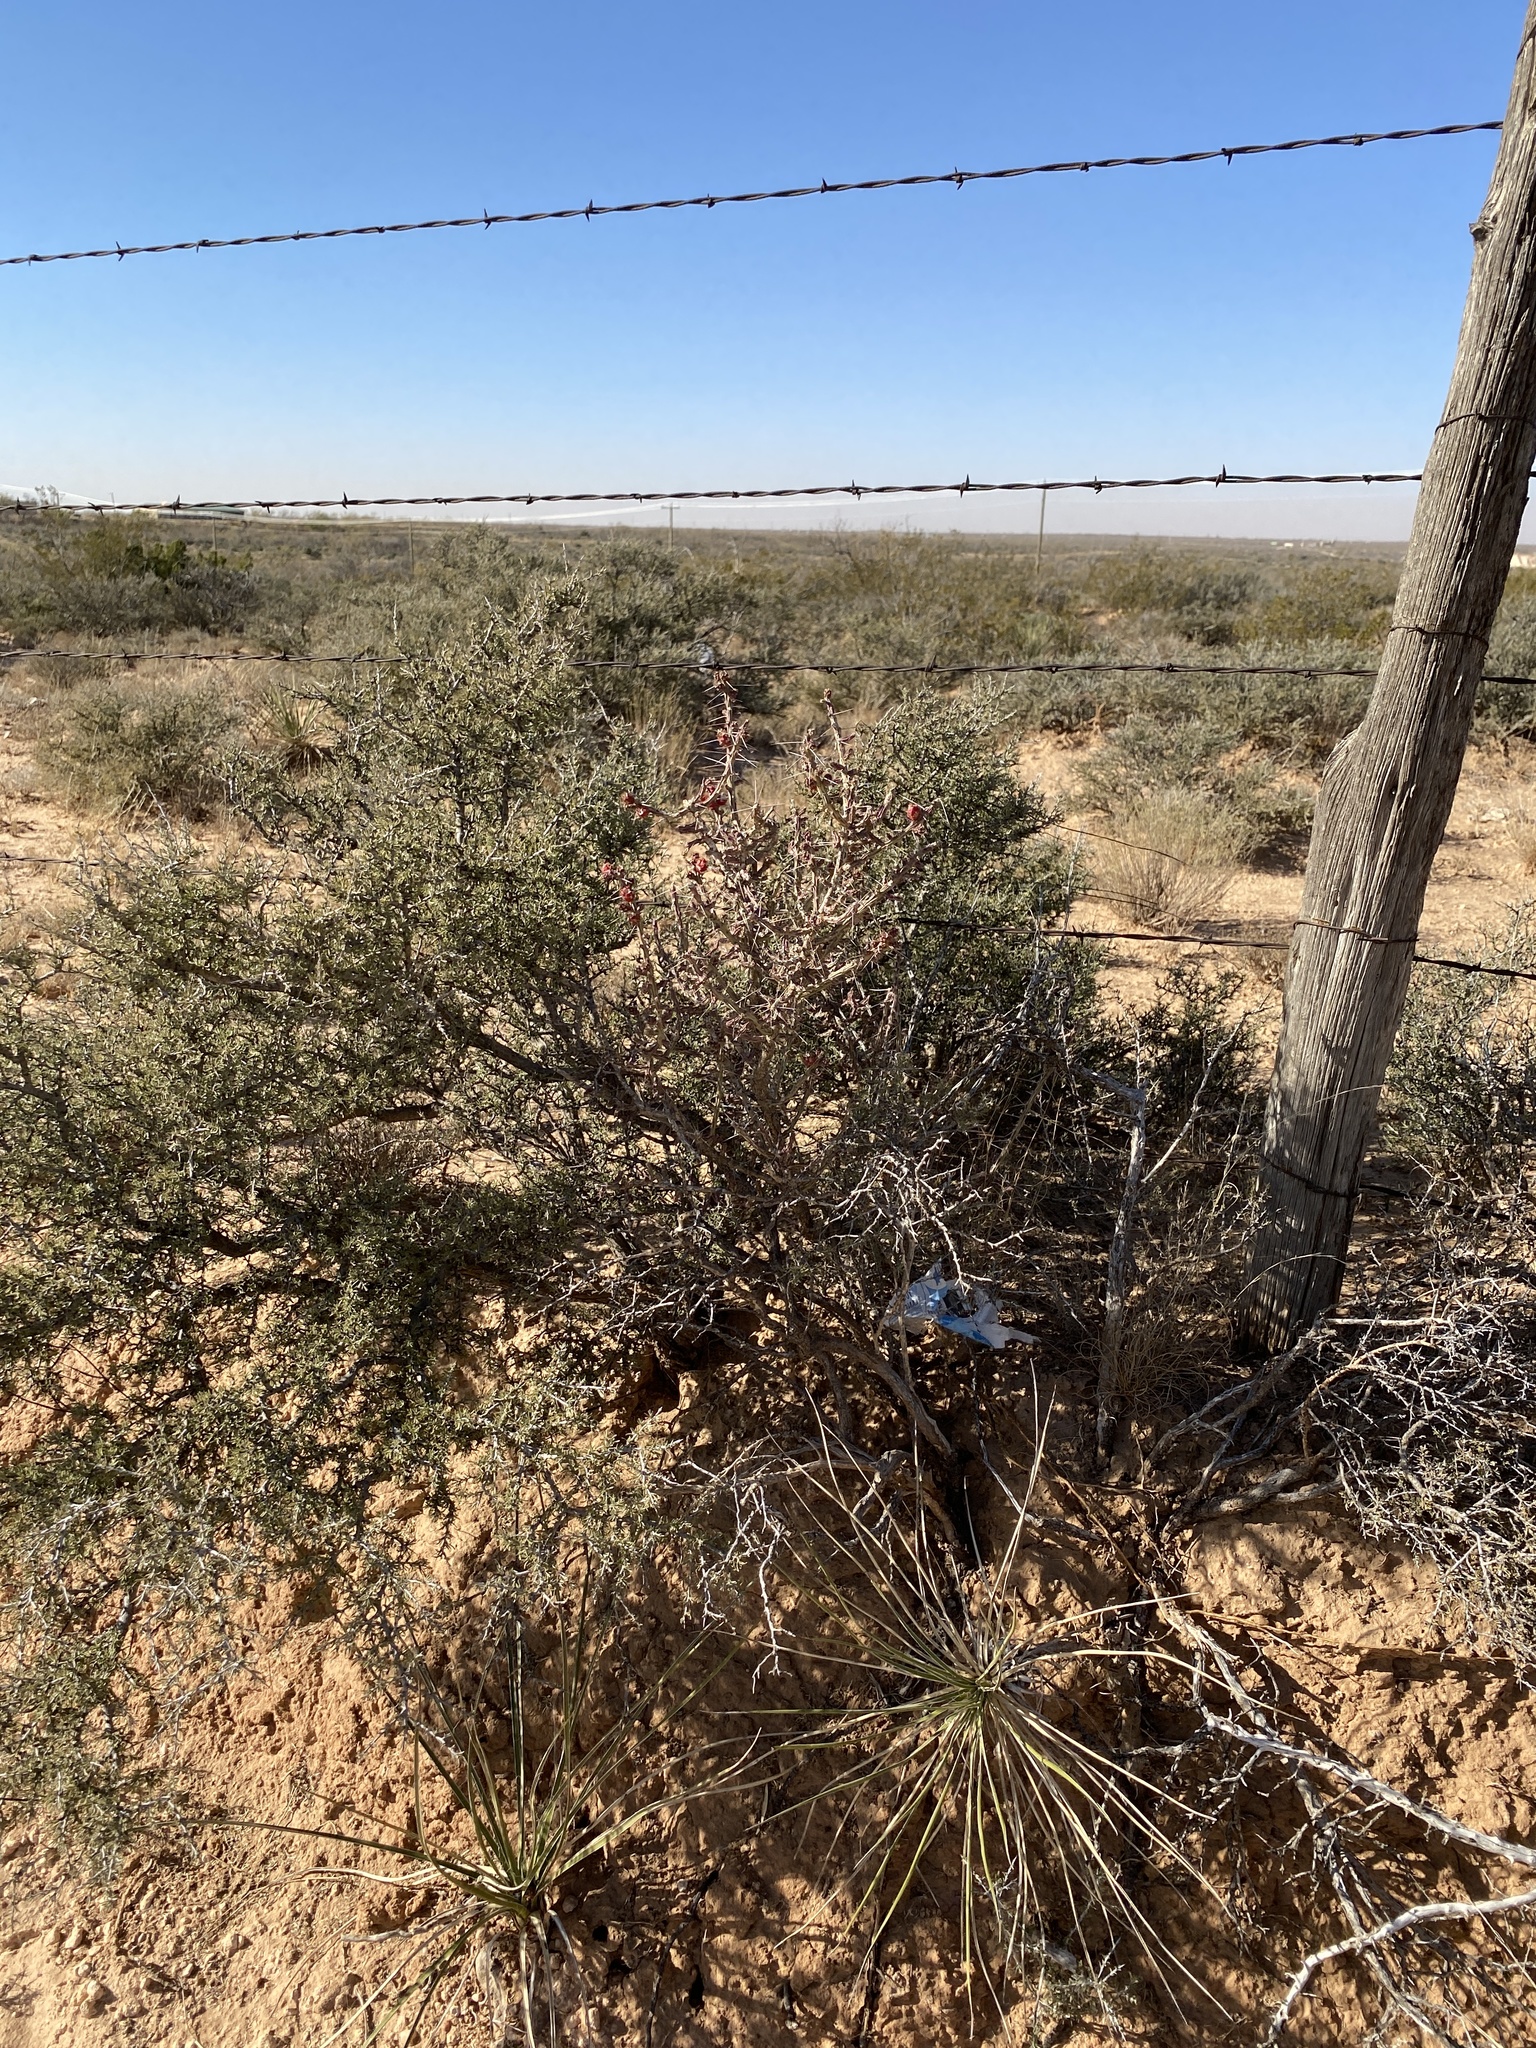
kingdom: Plantae
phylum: Tracheophyta
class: Magnoliopsida
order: Caryophyllales
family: Cactaceae
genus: Cylindropuntia
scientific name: Cylindropuntia leptocaulis
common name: Christmas cactus
